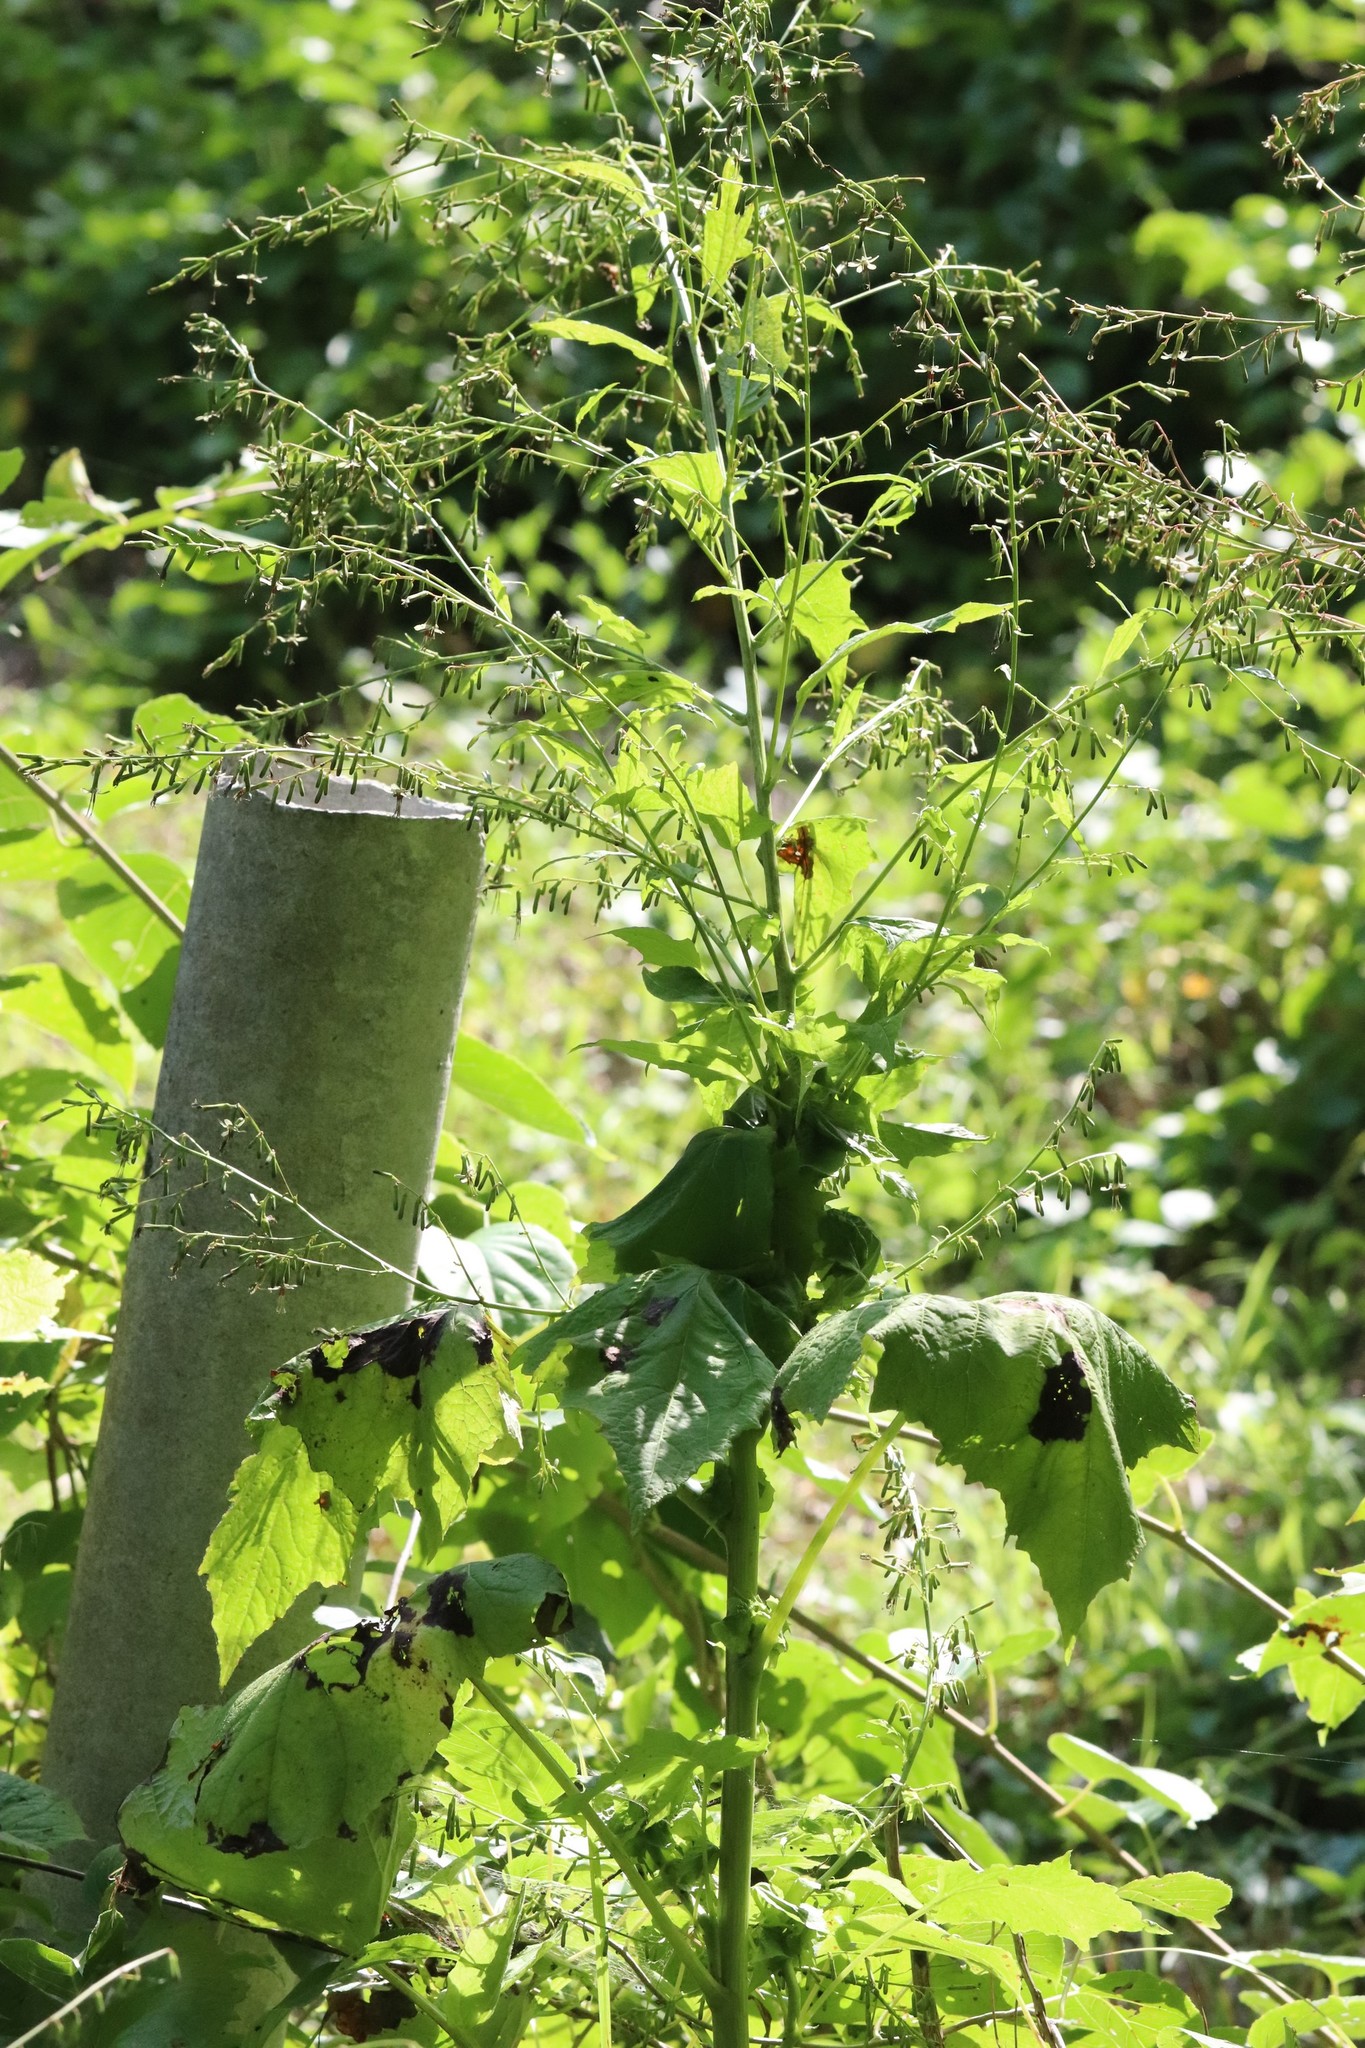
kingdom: Plantae
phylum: Tracheophyta
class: Magnoliopsida
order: Asterales
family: Asteraceae
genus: Nabalus
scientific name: Nabalus tatarinowii
